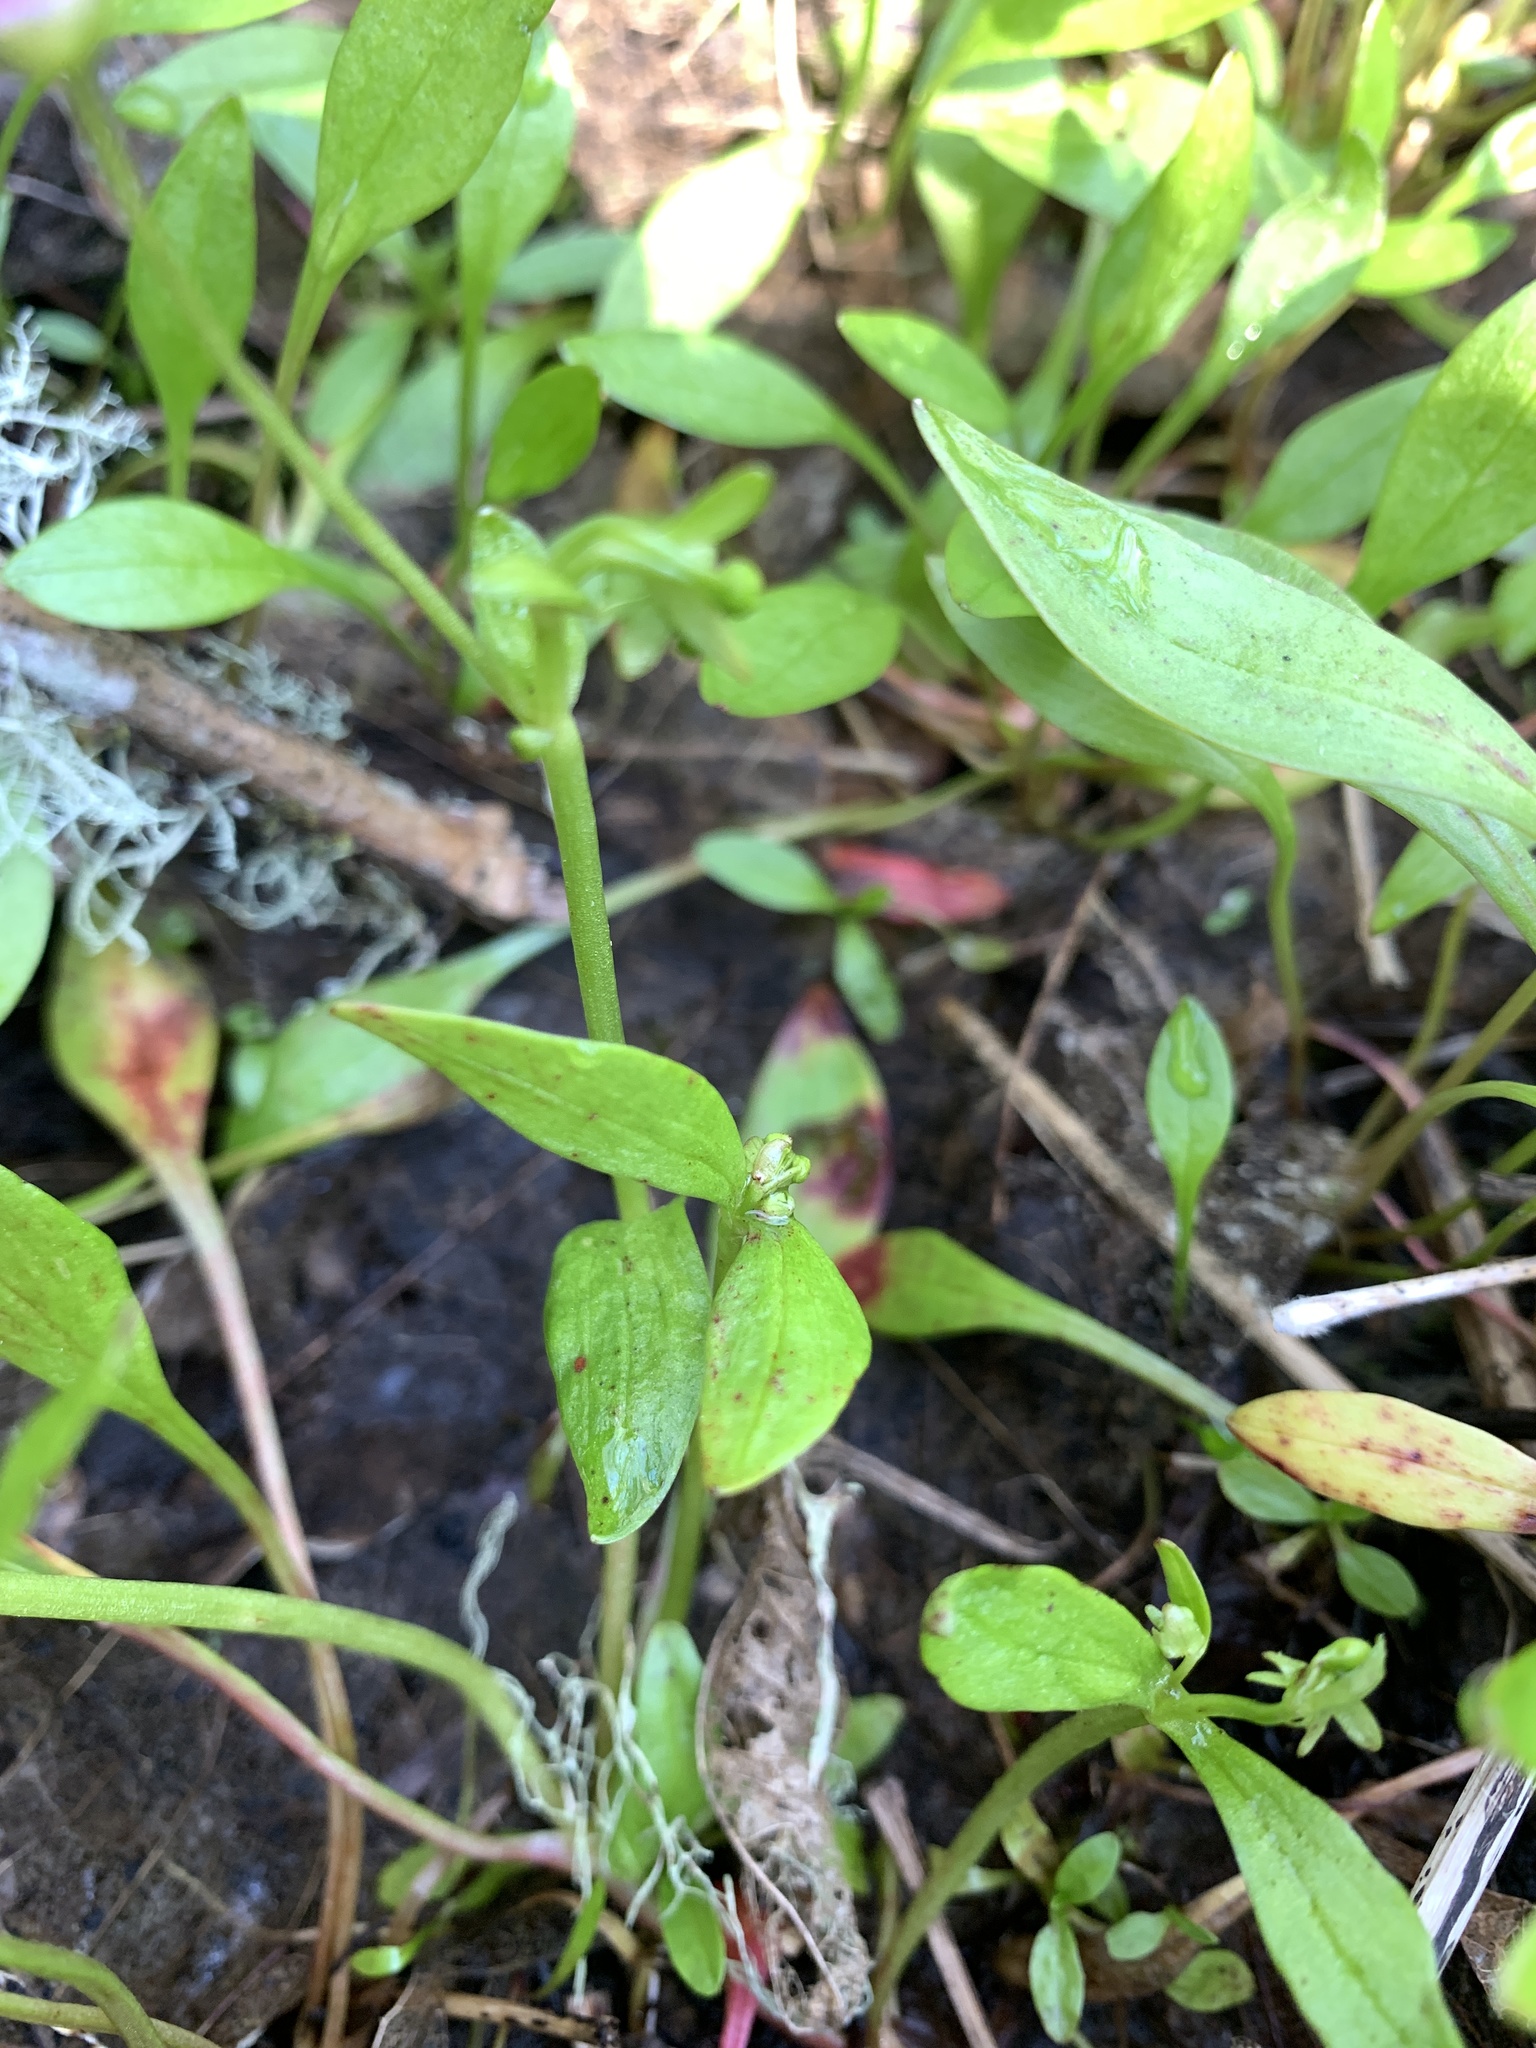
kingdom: Plantae
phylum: Tracheophyta
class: Magnoliopsida
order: Caryophyllales
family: Montiaceae
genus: Claytonia
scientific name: Claytonia sibirica
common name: Pink purslane
